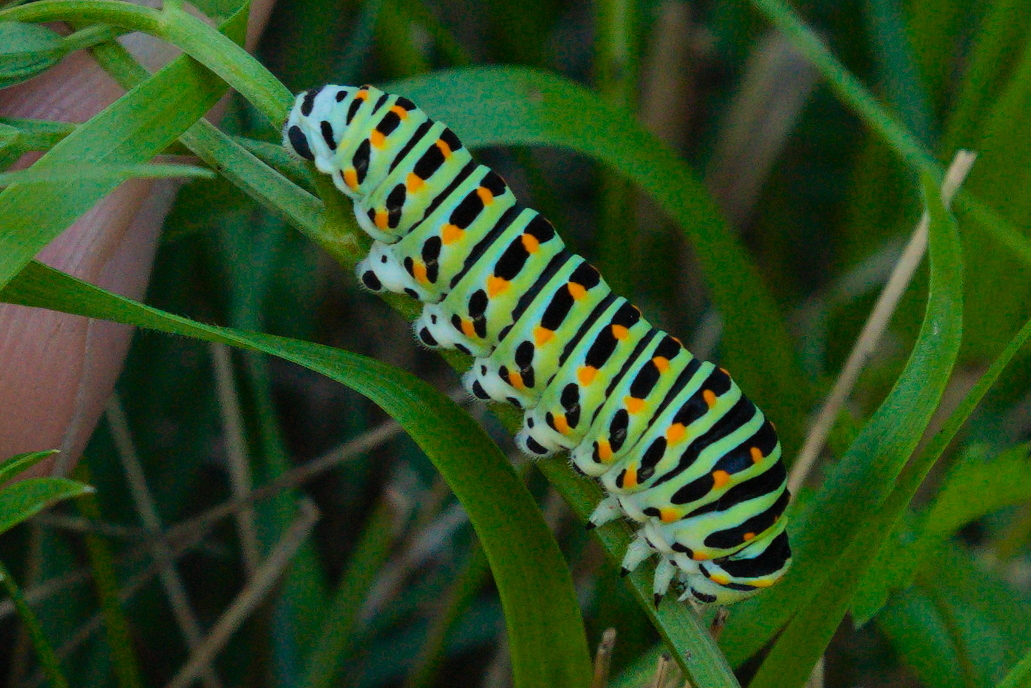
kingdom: Animalia
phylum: Arthropoda
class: Insecta
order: Lepidoptera
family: Papilionidae
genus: Papilio
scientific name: Papilio machaon
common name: Swallowtail
